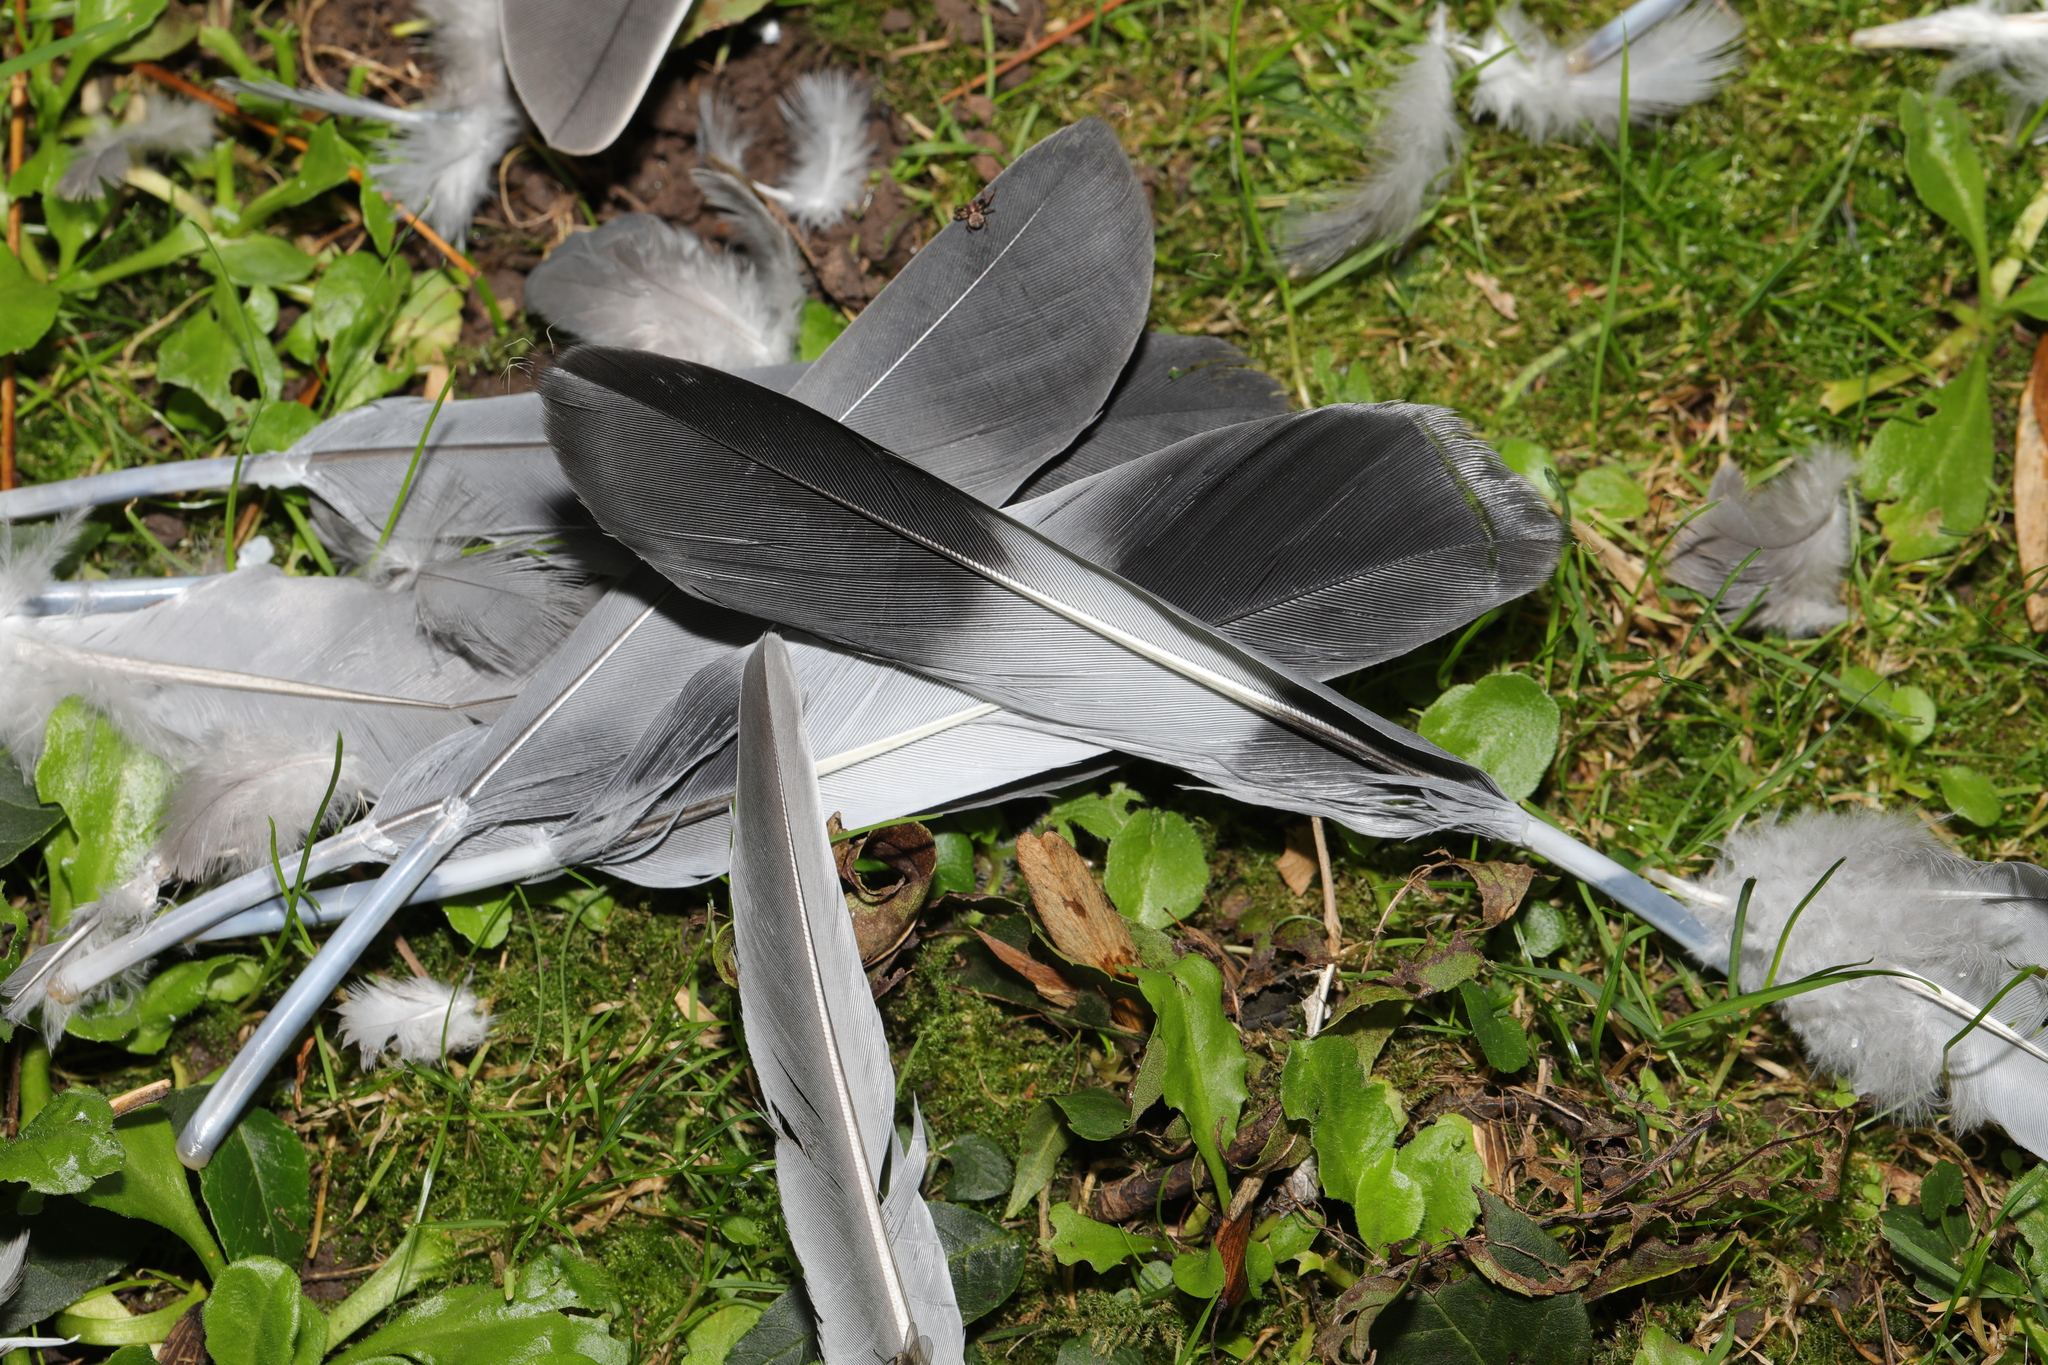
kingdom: Animalia
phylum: Chordata
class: Aves
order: Columbiformes
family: Columbidae
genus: Columba
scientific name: Columba palumbus
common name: Common wood pigeon
